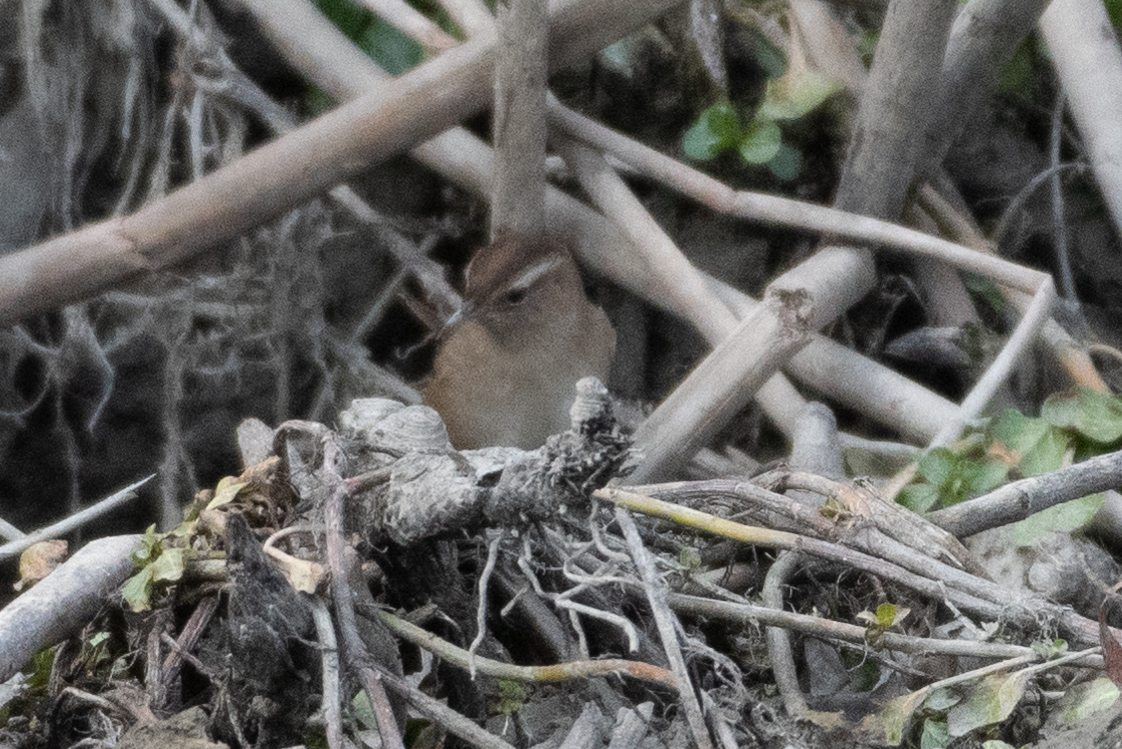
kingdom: Animalia
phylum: Chordata
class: Aves
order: Passeriformes
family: Troglodytidae
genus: Cistothorus
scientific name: Cistothorus palustris
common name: Marsh wren
